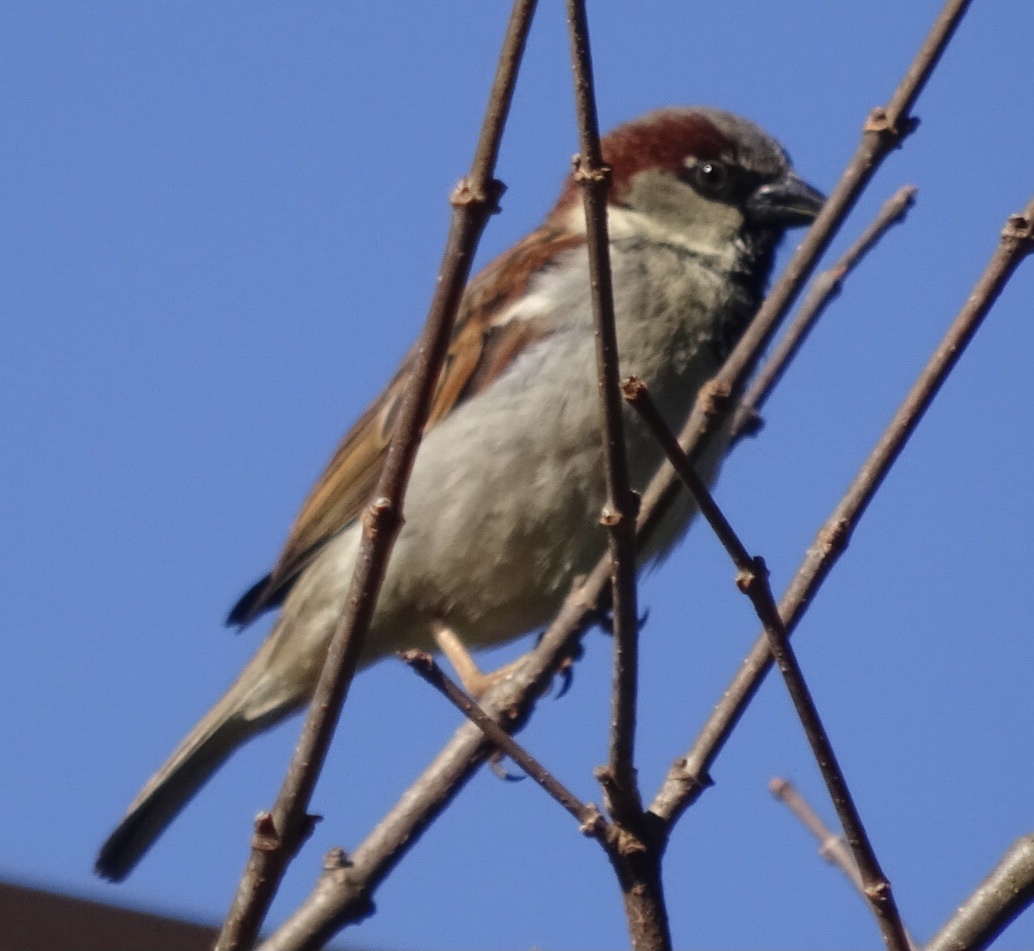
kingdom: Animalia
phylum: Chordata
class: Aves
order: Passeriformes
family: Passeridae
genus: Passer
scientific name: Passer domesticus
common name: House sparrow
